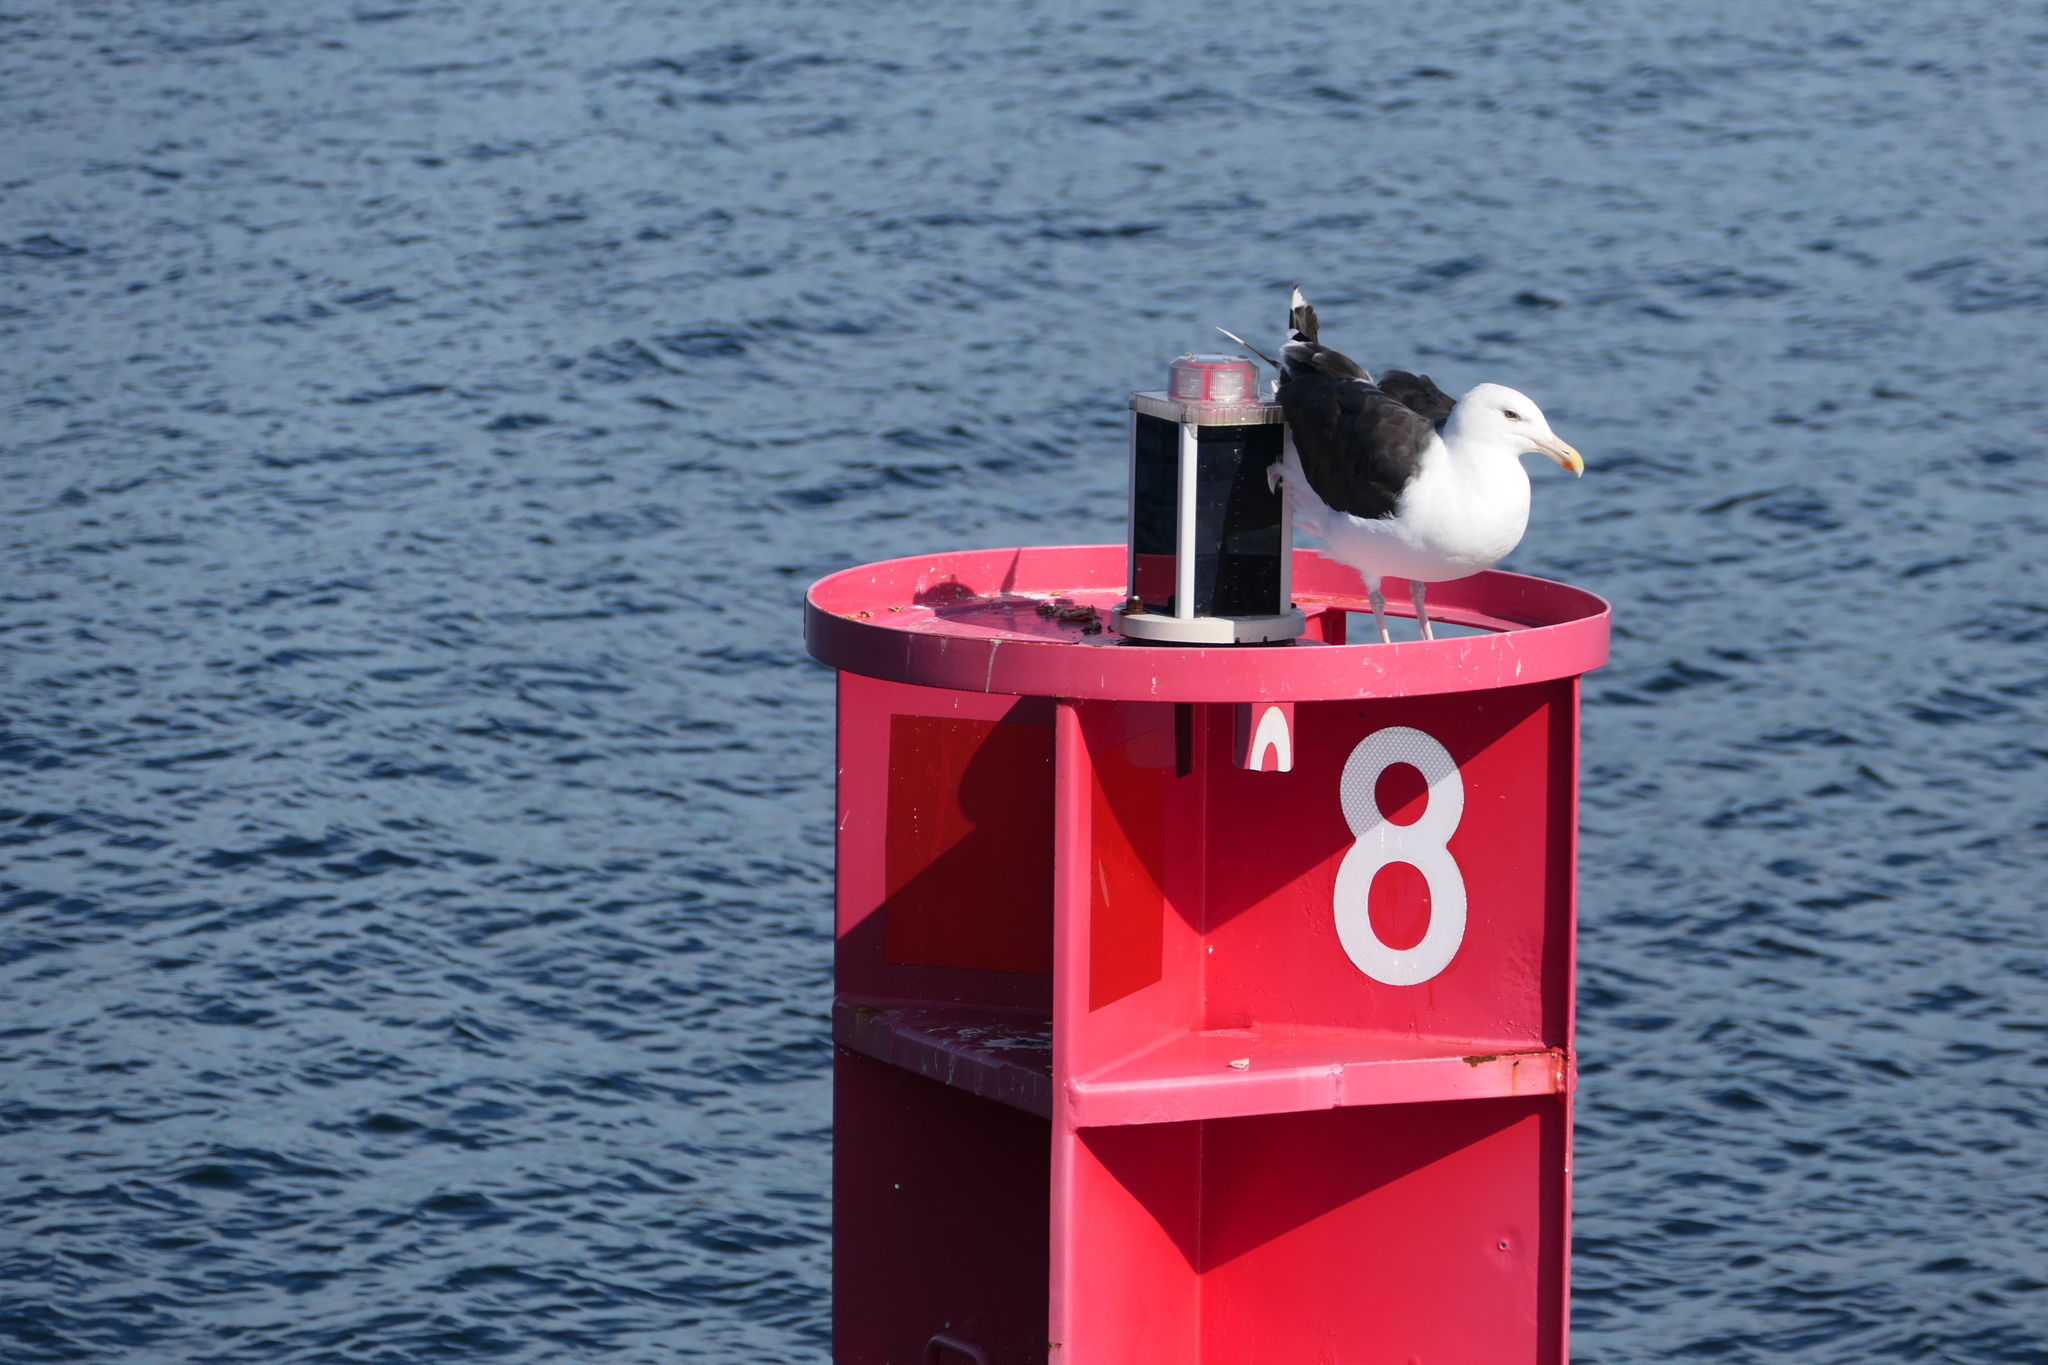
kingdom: Animalia
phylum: Chordata
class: Aves
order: Charadriiformes
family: Laridae
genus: Larus
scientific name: Larus marinus
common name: Great black-backed gull
